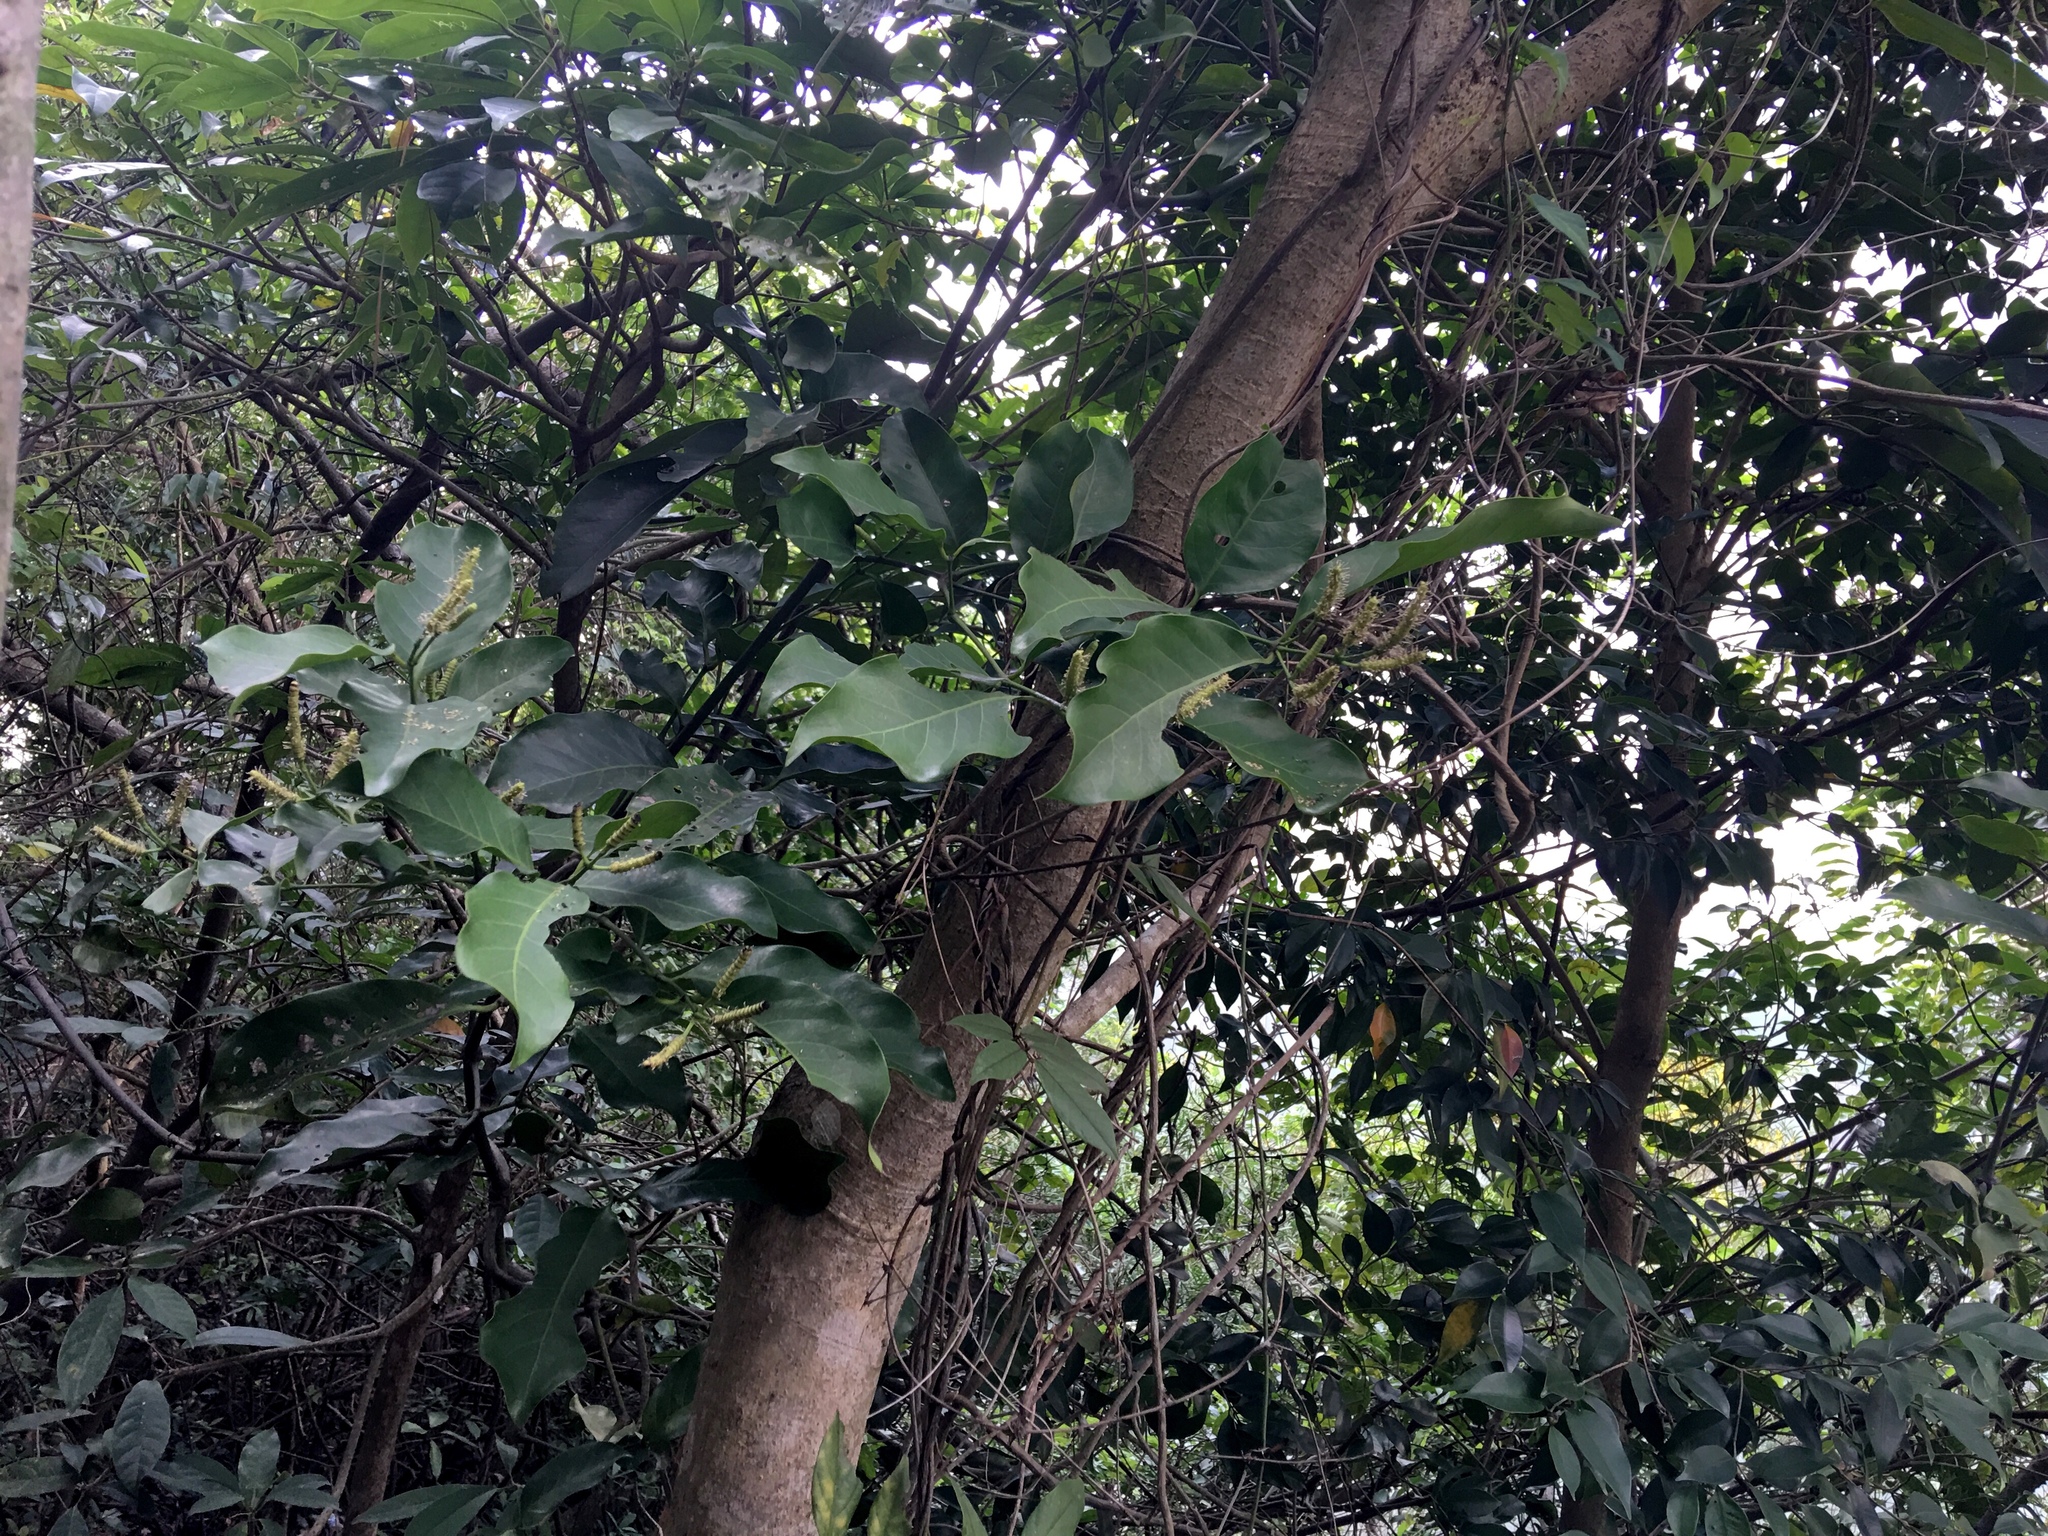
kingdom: Plantae
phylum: Tracheophyta
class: Gnetopsida
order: Gnetales
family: Gnetaceae
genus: Gnetum
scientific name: Gnetum luofuense
